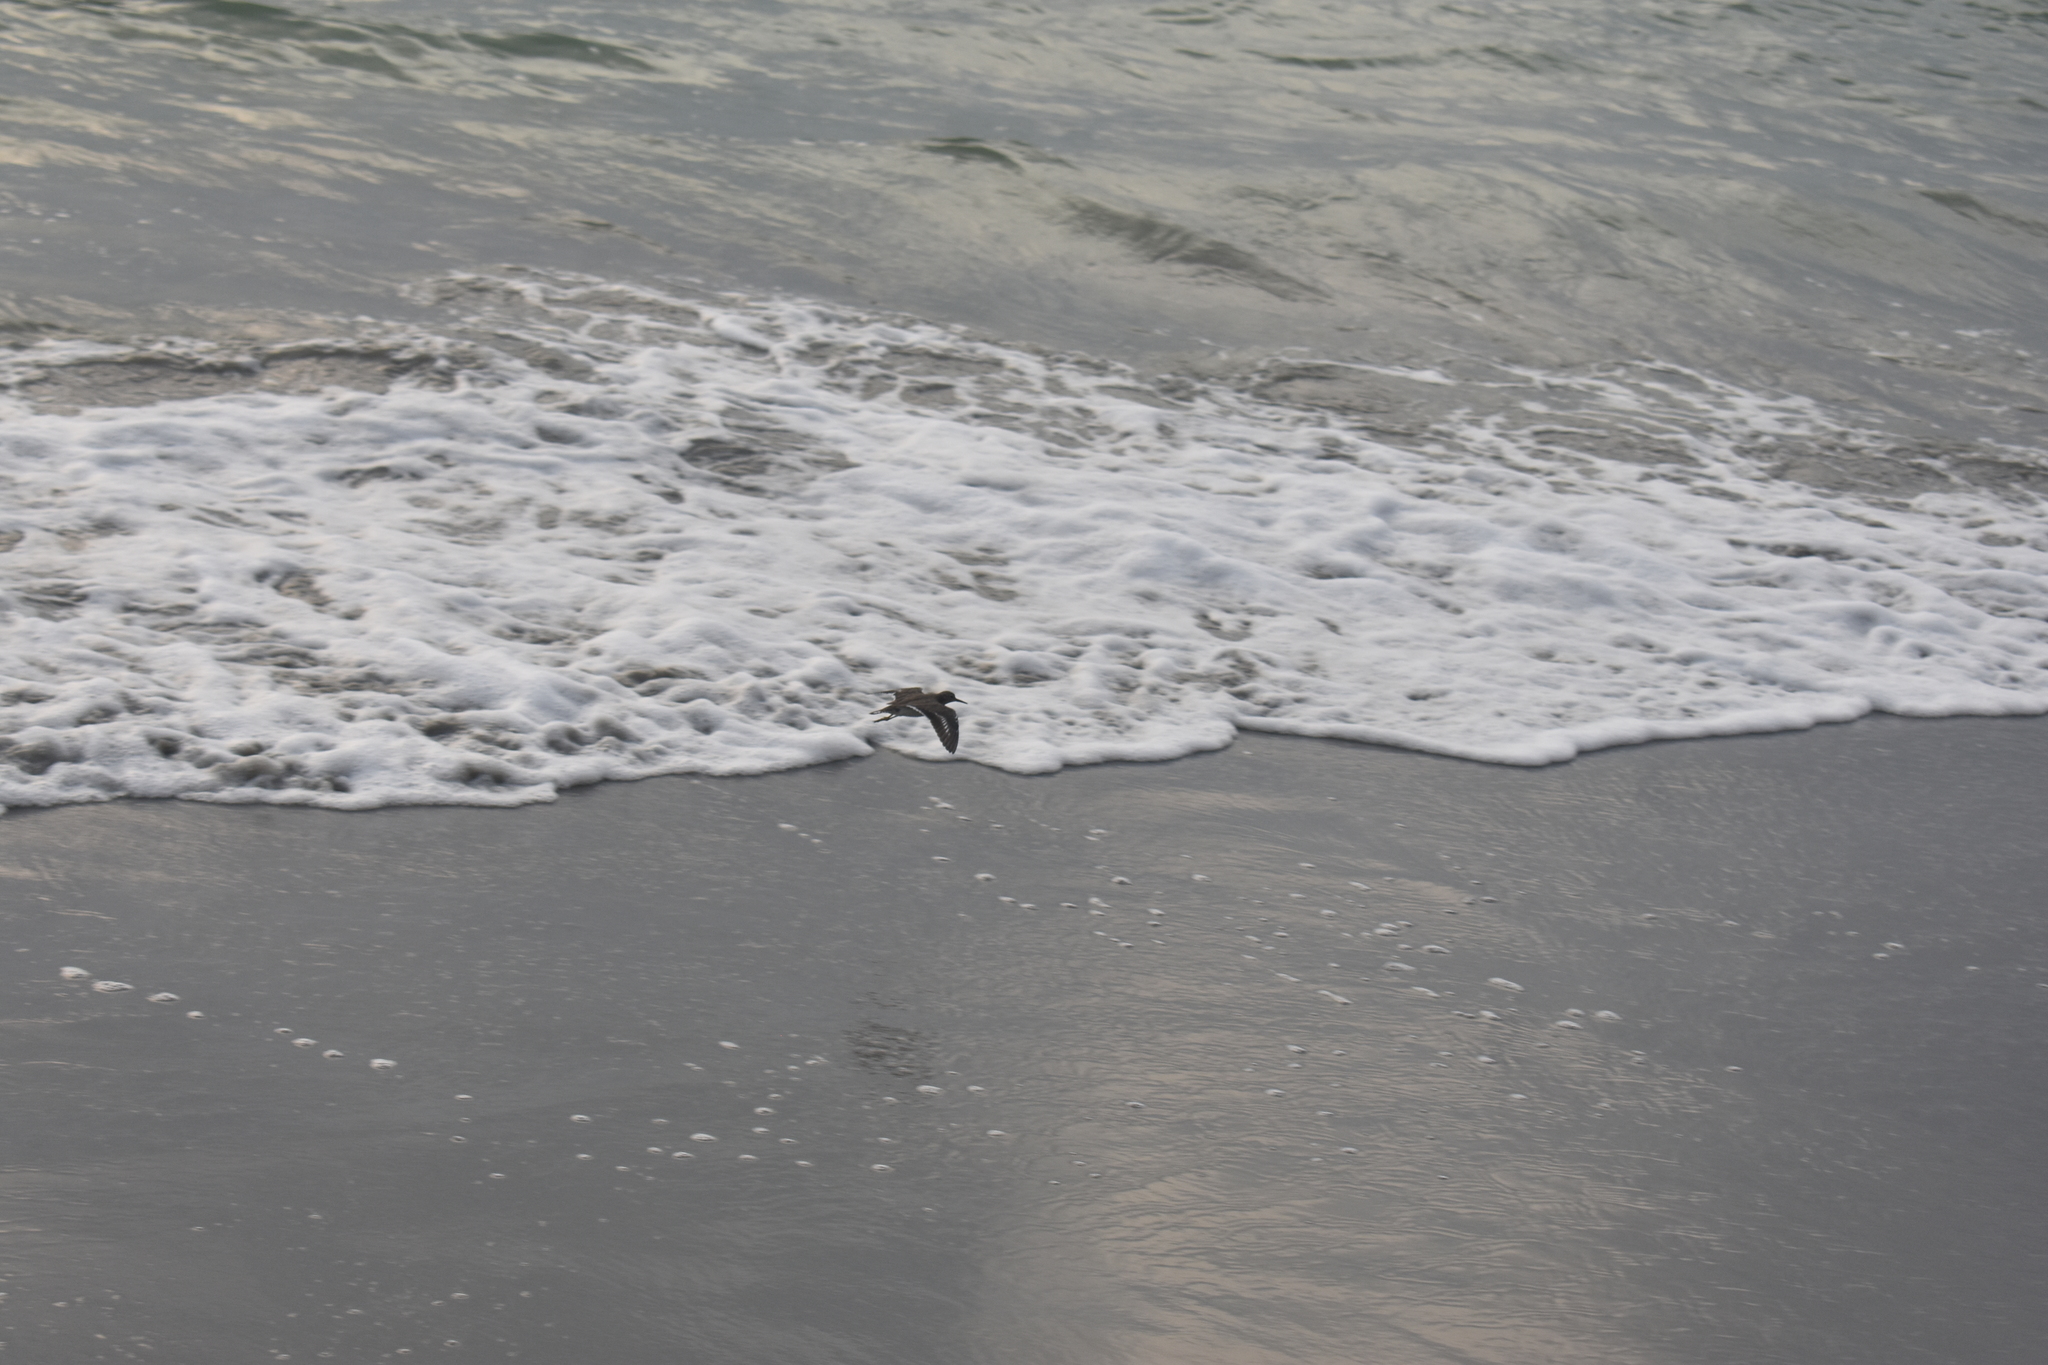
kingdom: Animalia
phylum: Chordata
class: Aves
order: Charadriiformes
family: Scolopacidae
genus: Actitis
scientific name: Actitis macularius
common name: Spotted sandpiper
